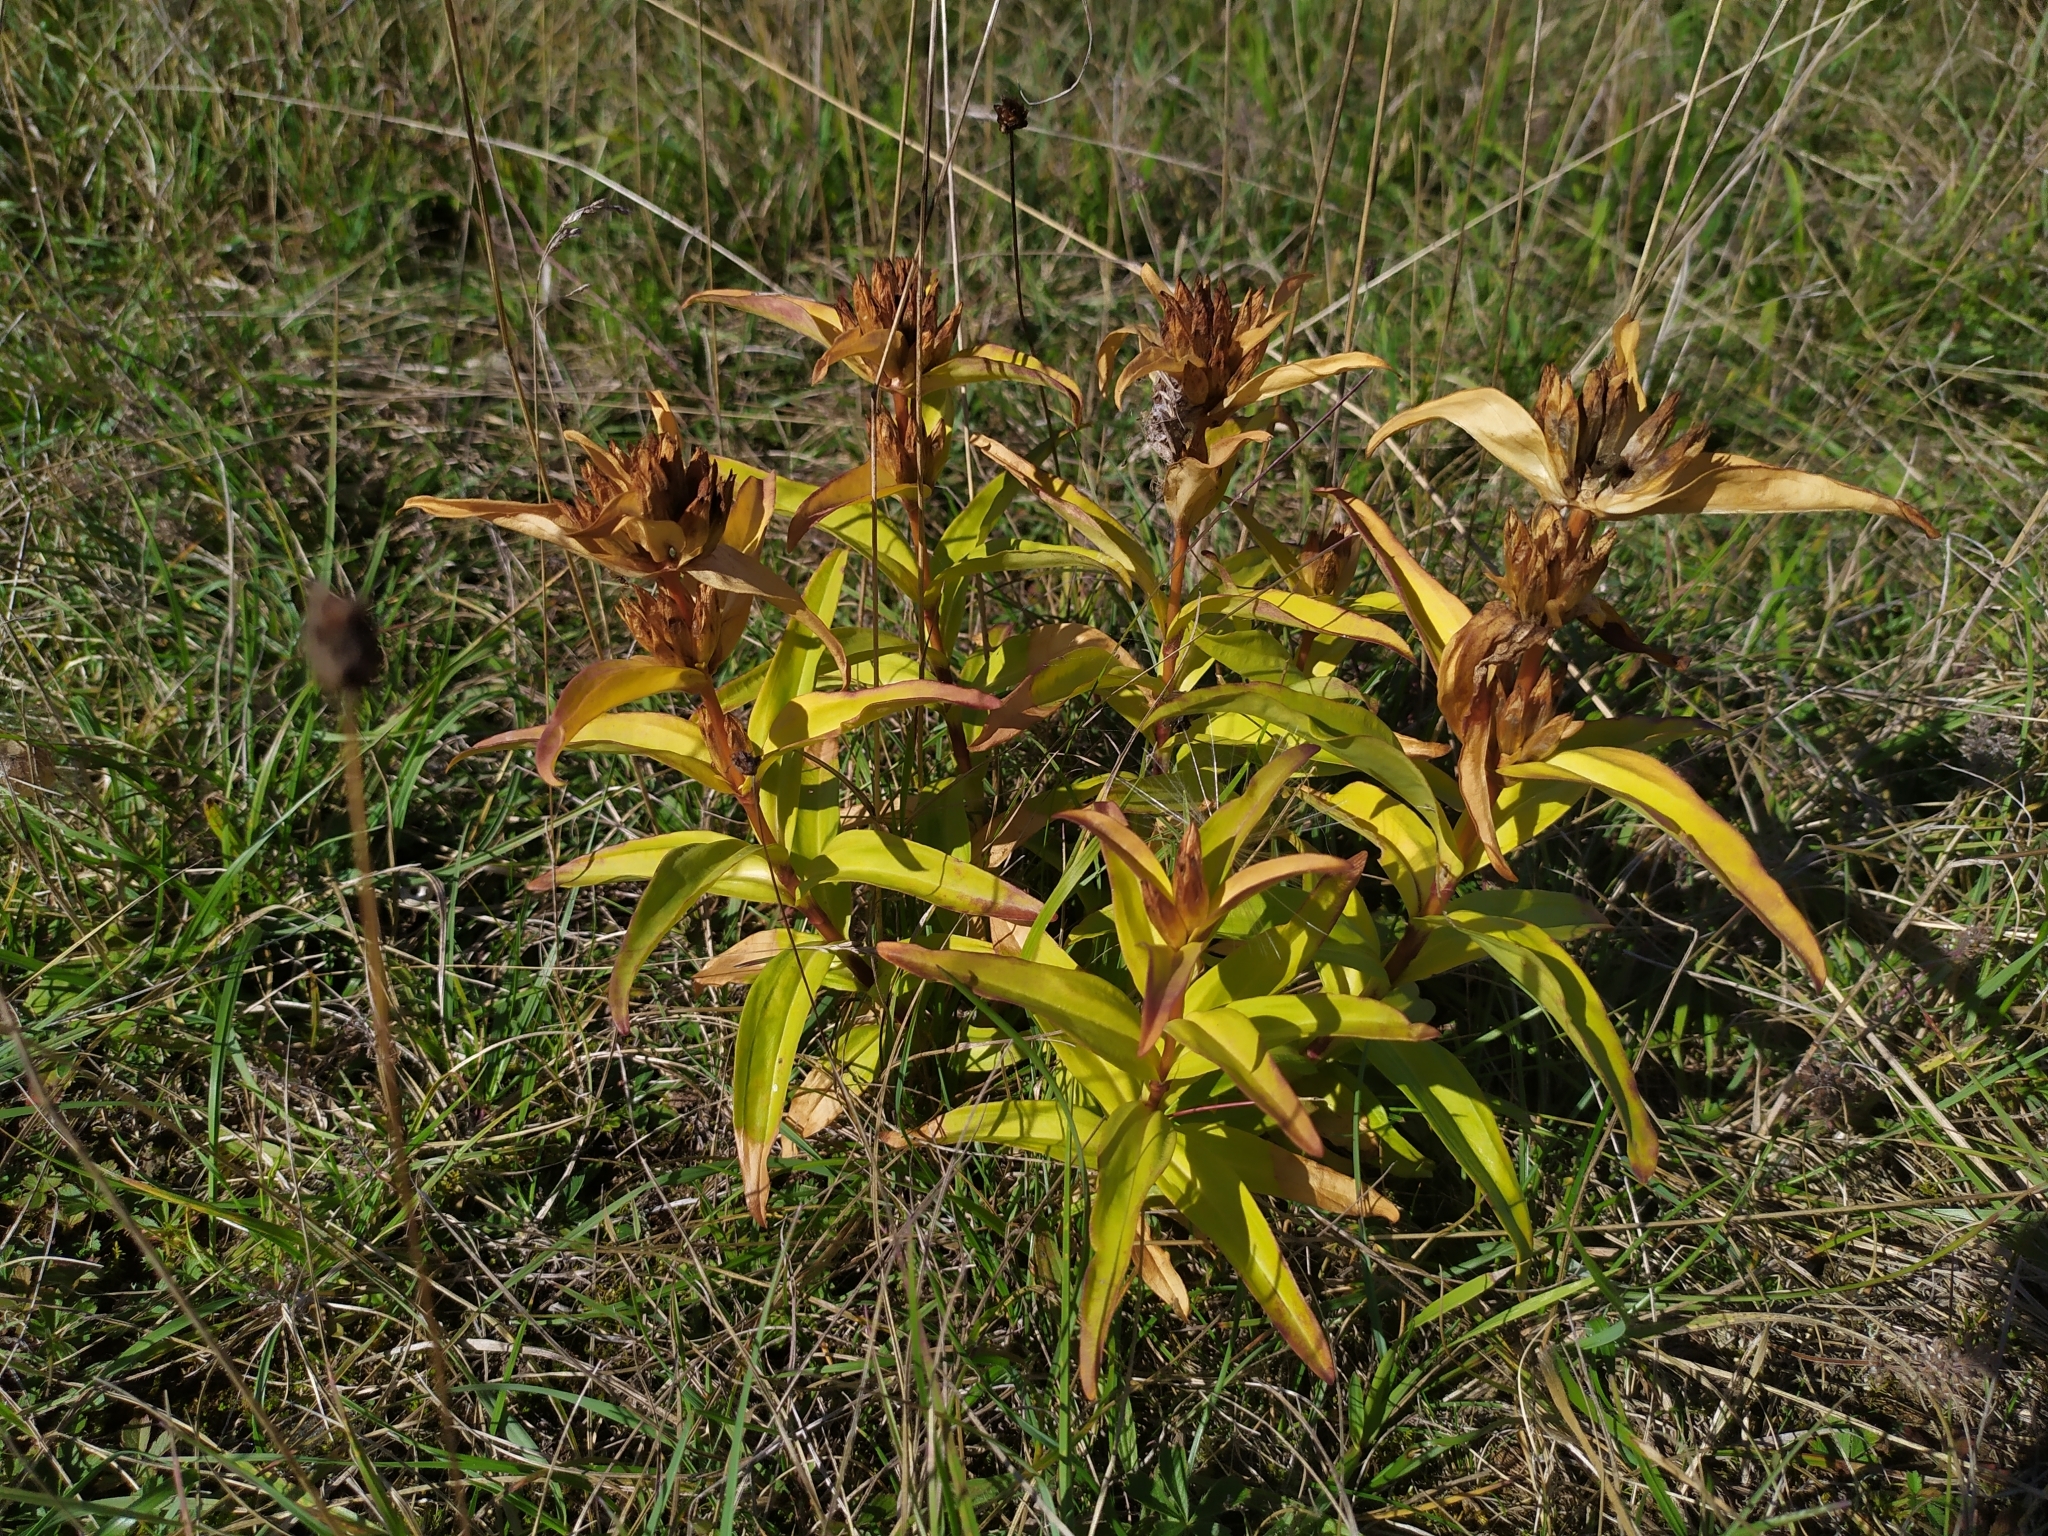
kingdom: Plantae
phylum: Tracheophyta
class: Magnoliopsida
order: Gentianales
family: Gentianaceae
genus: Gentiana
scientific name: Gentiana cruciata
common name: Cross gentian
